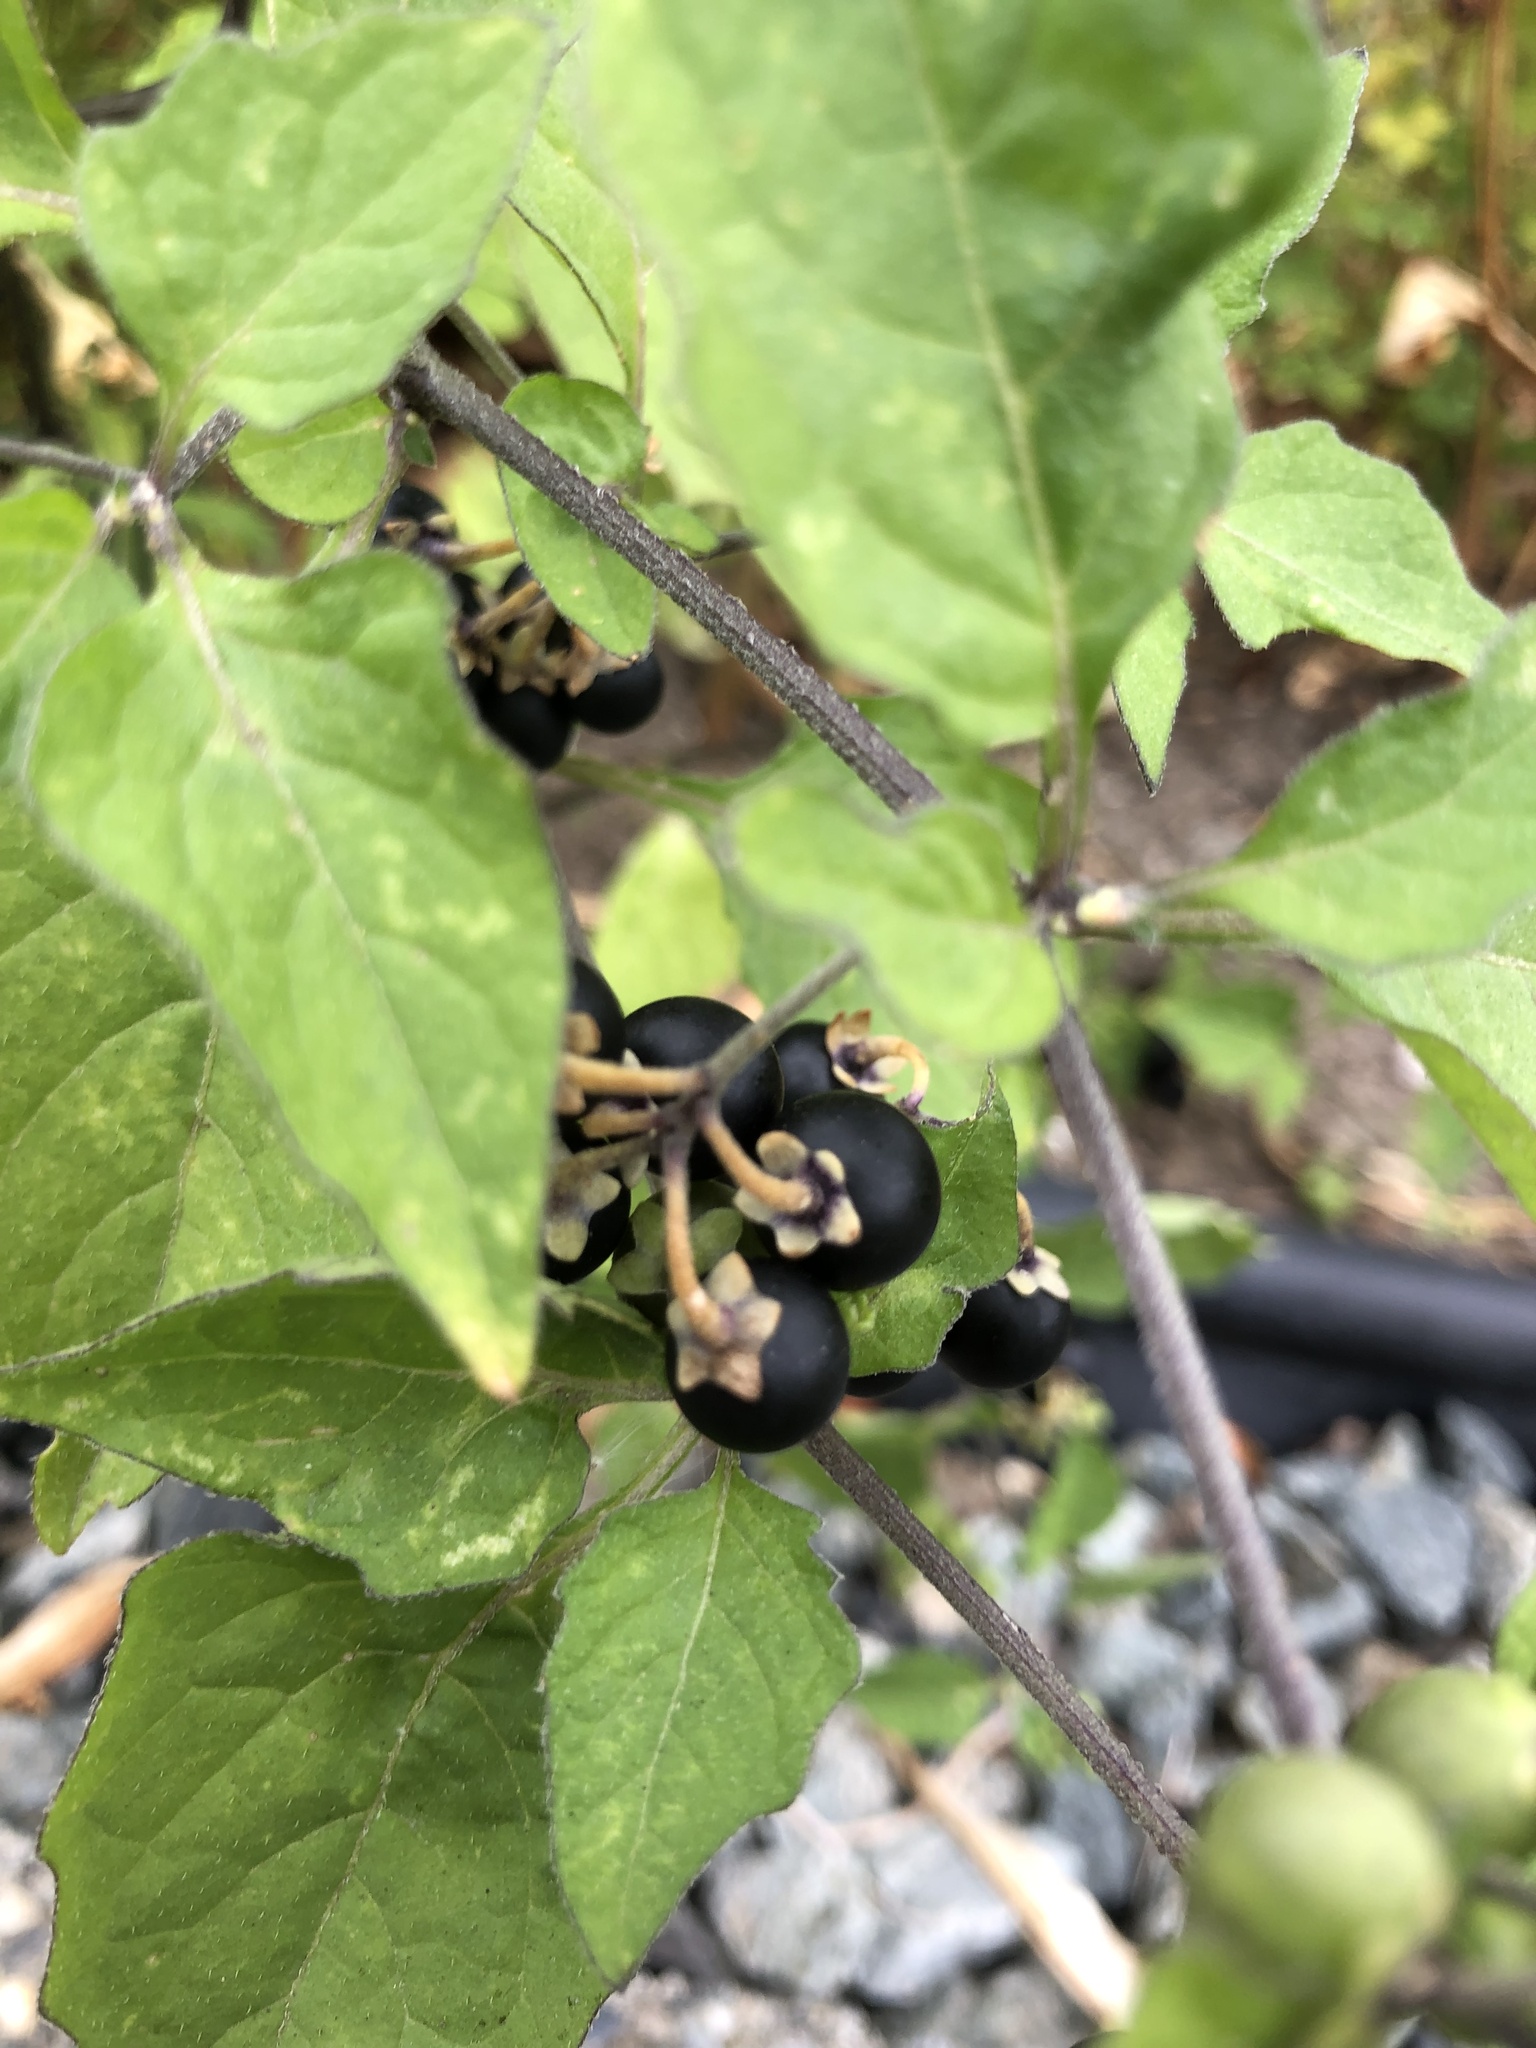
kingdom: Plantae
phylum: Tracheophyta
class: Magnoliopsida
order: Solanales
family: Solanaceae
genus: Solanum
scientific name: Solanum nigrum
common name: Black nightshade
